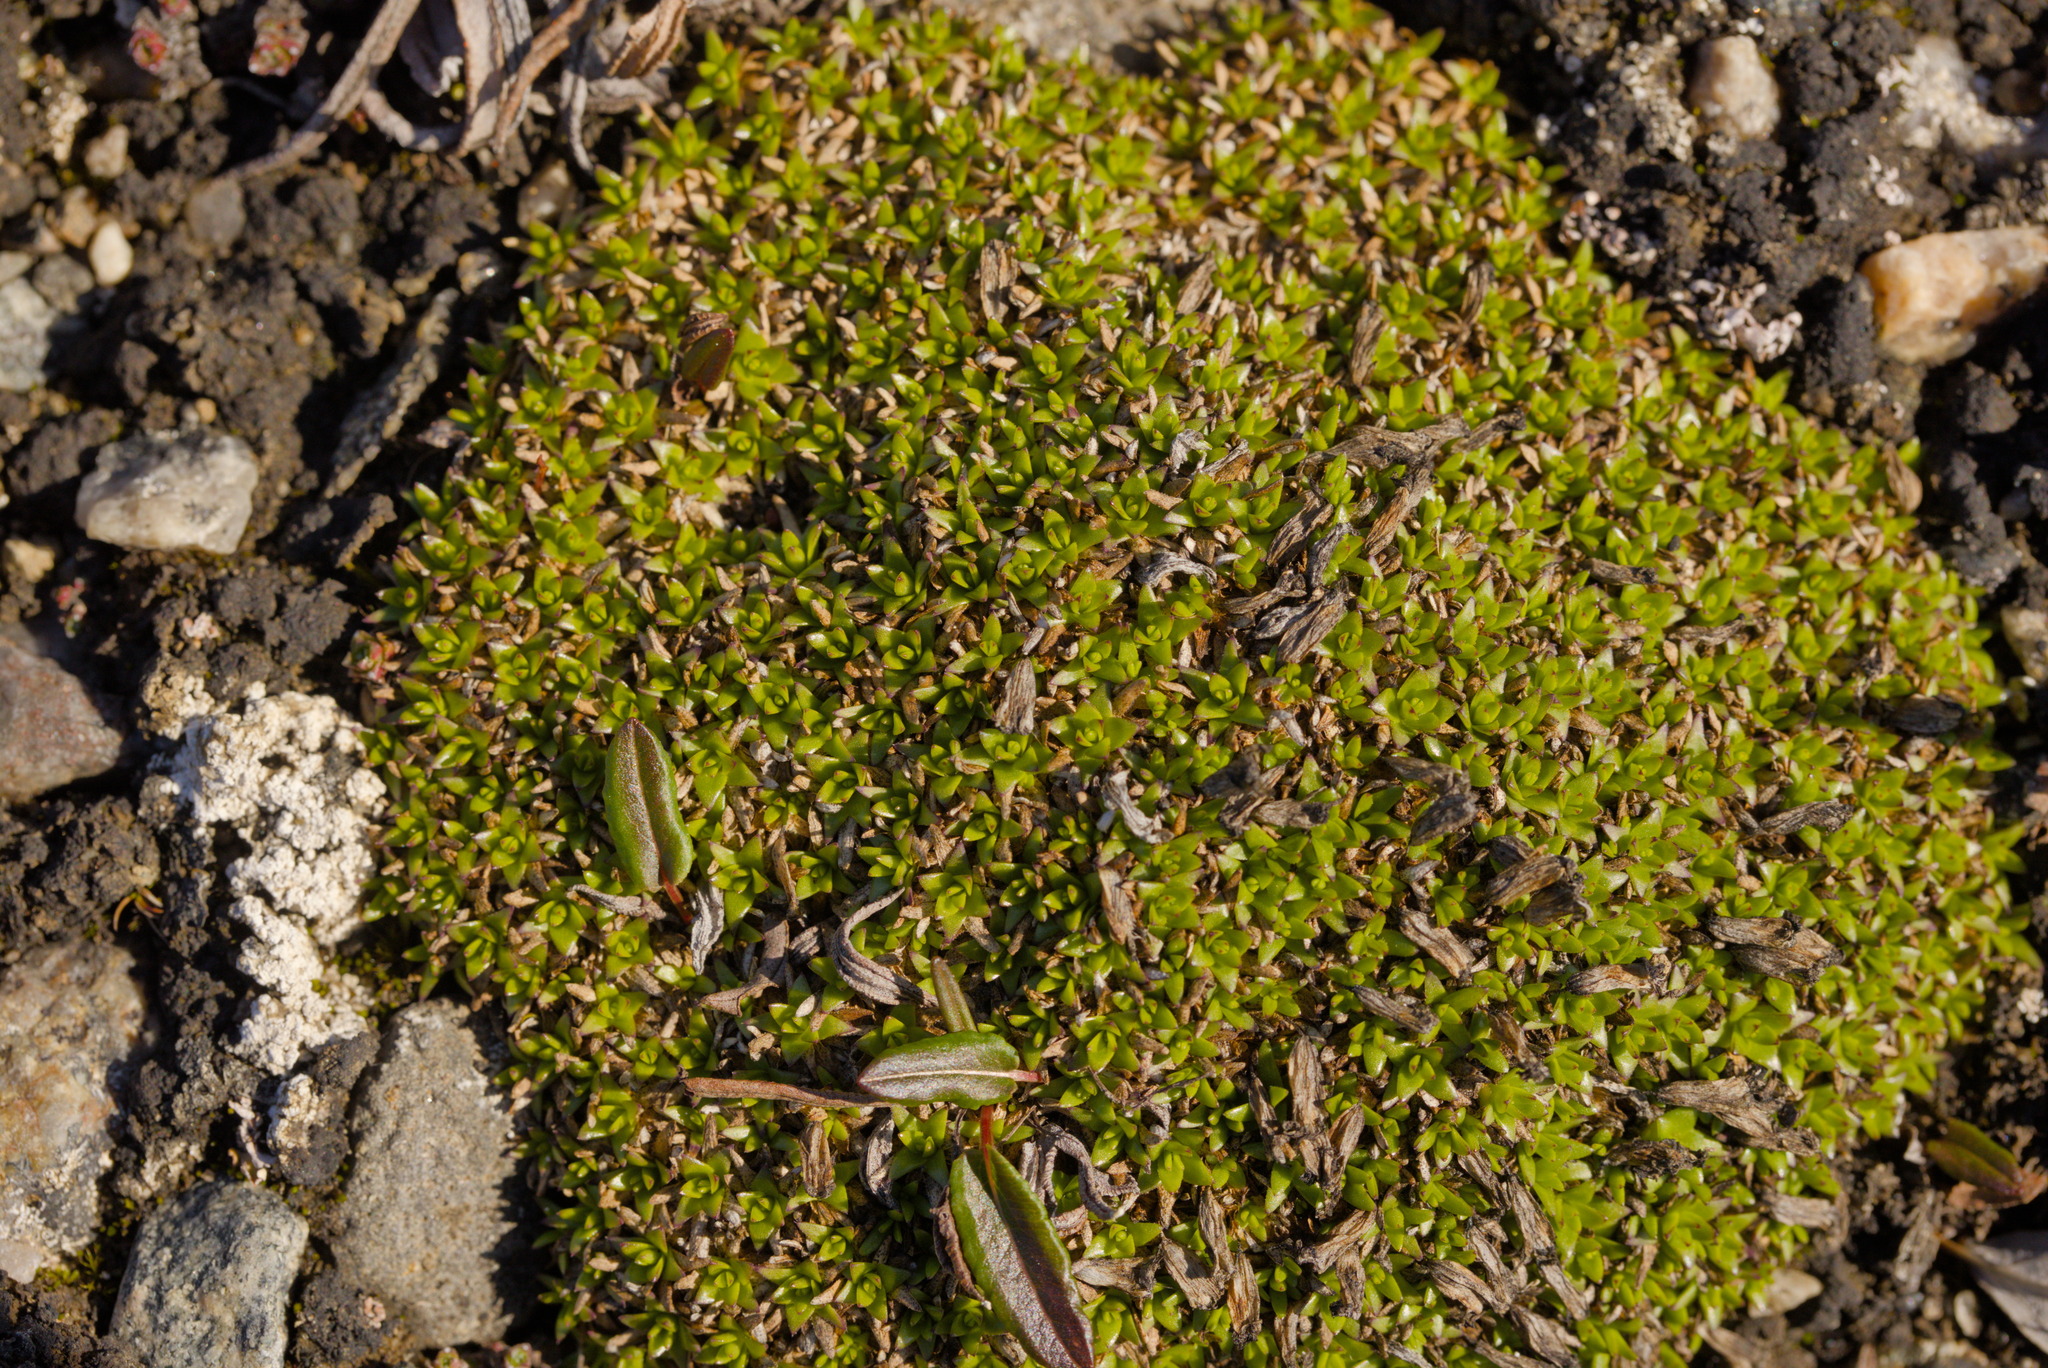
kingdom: Plantae
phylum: Tracheophyta
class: Magnoliopsida
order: Caryophyllales
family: Caryophyllaceae
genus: Silene
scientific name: Silene acaulis
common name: Moss campion
